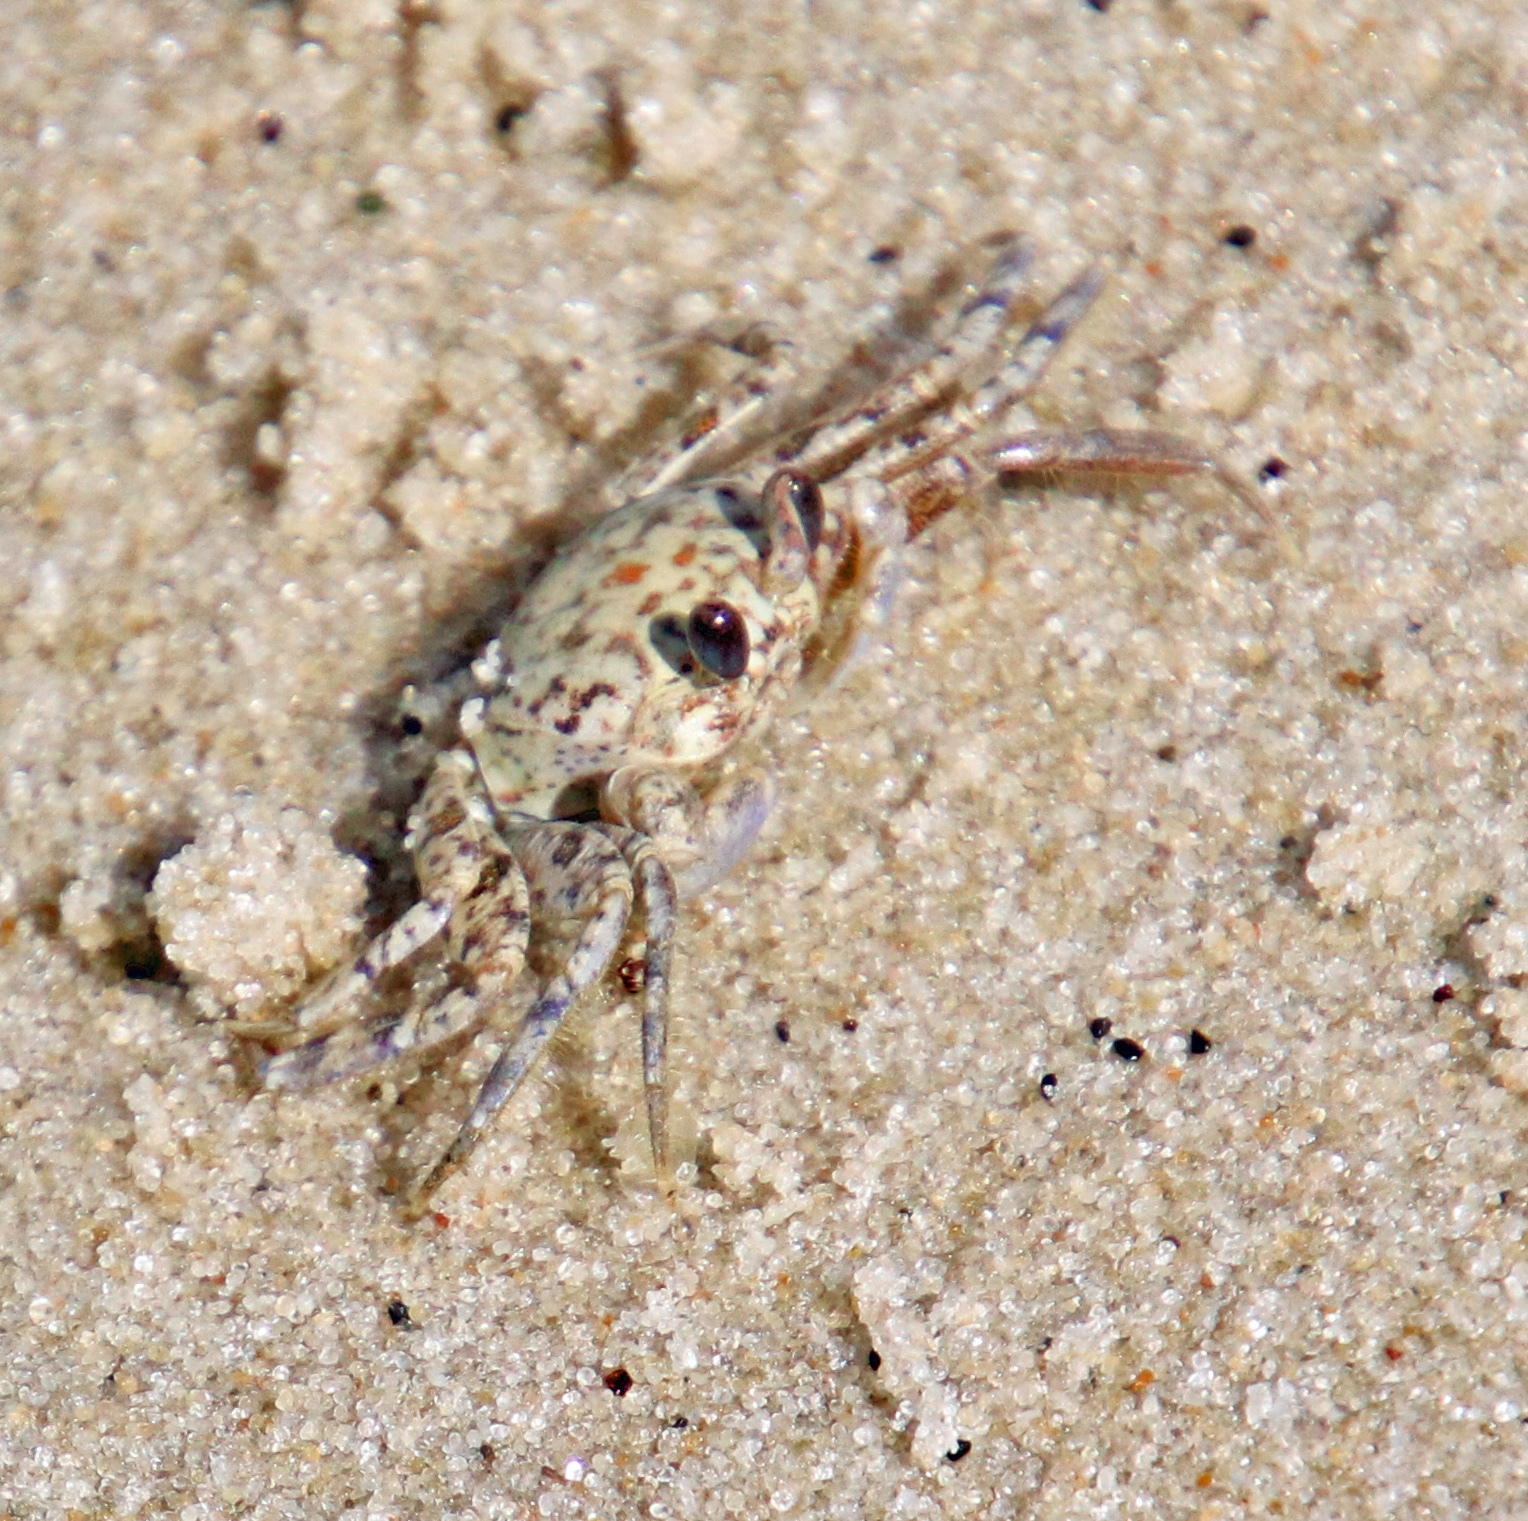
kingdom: Animalia
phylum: Arthropoda
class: Malacostraca
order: Decapoda
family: Ocypodidae
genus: Ocypode
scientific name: Ocypode quadrata
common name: Ghost crab
